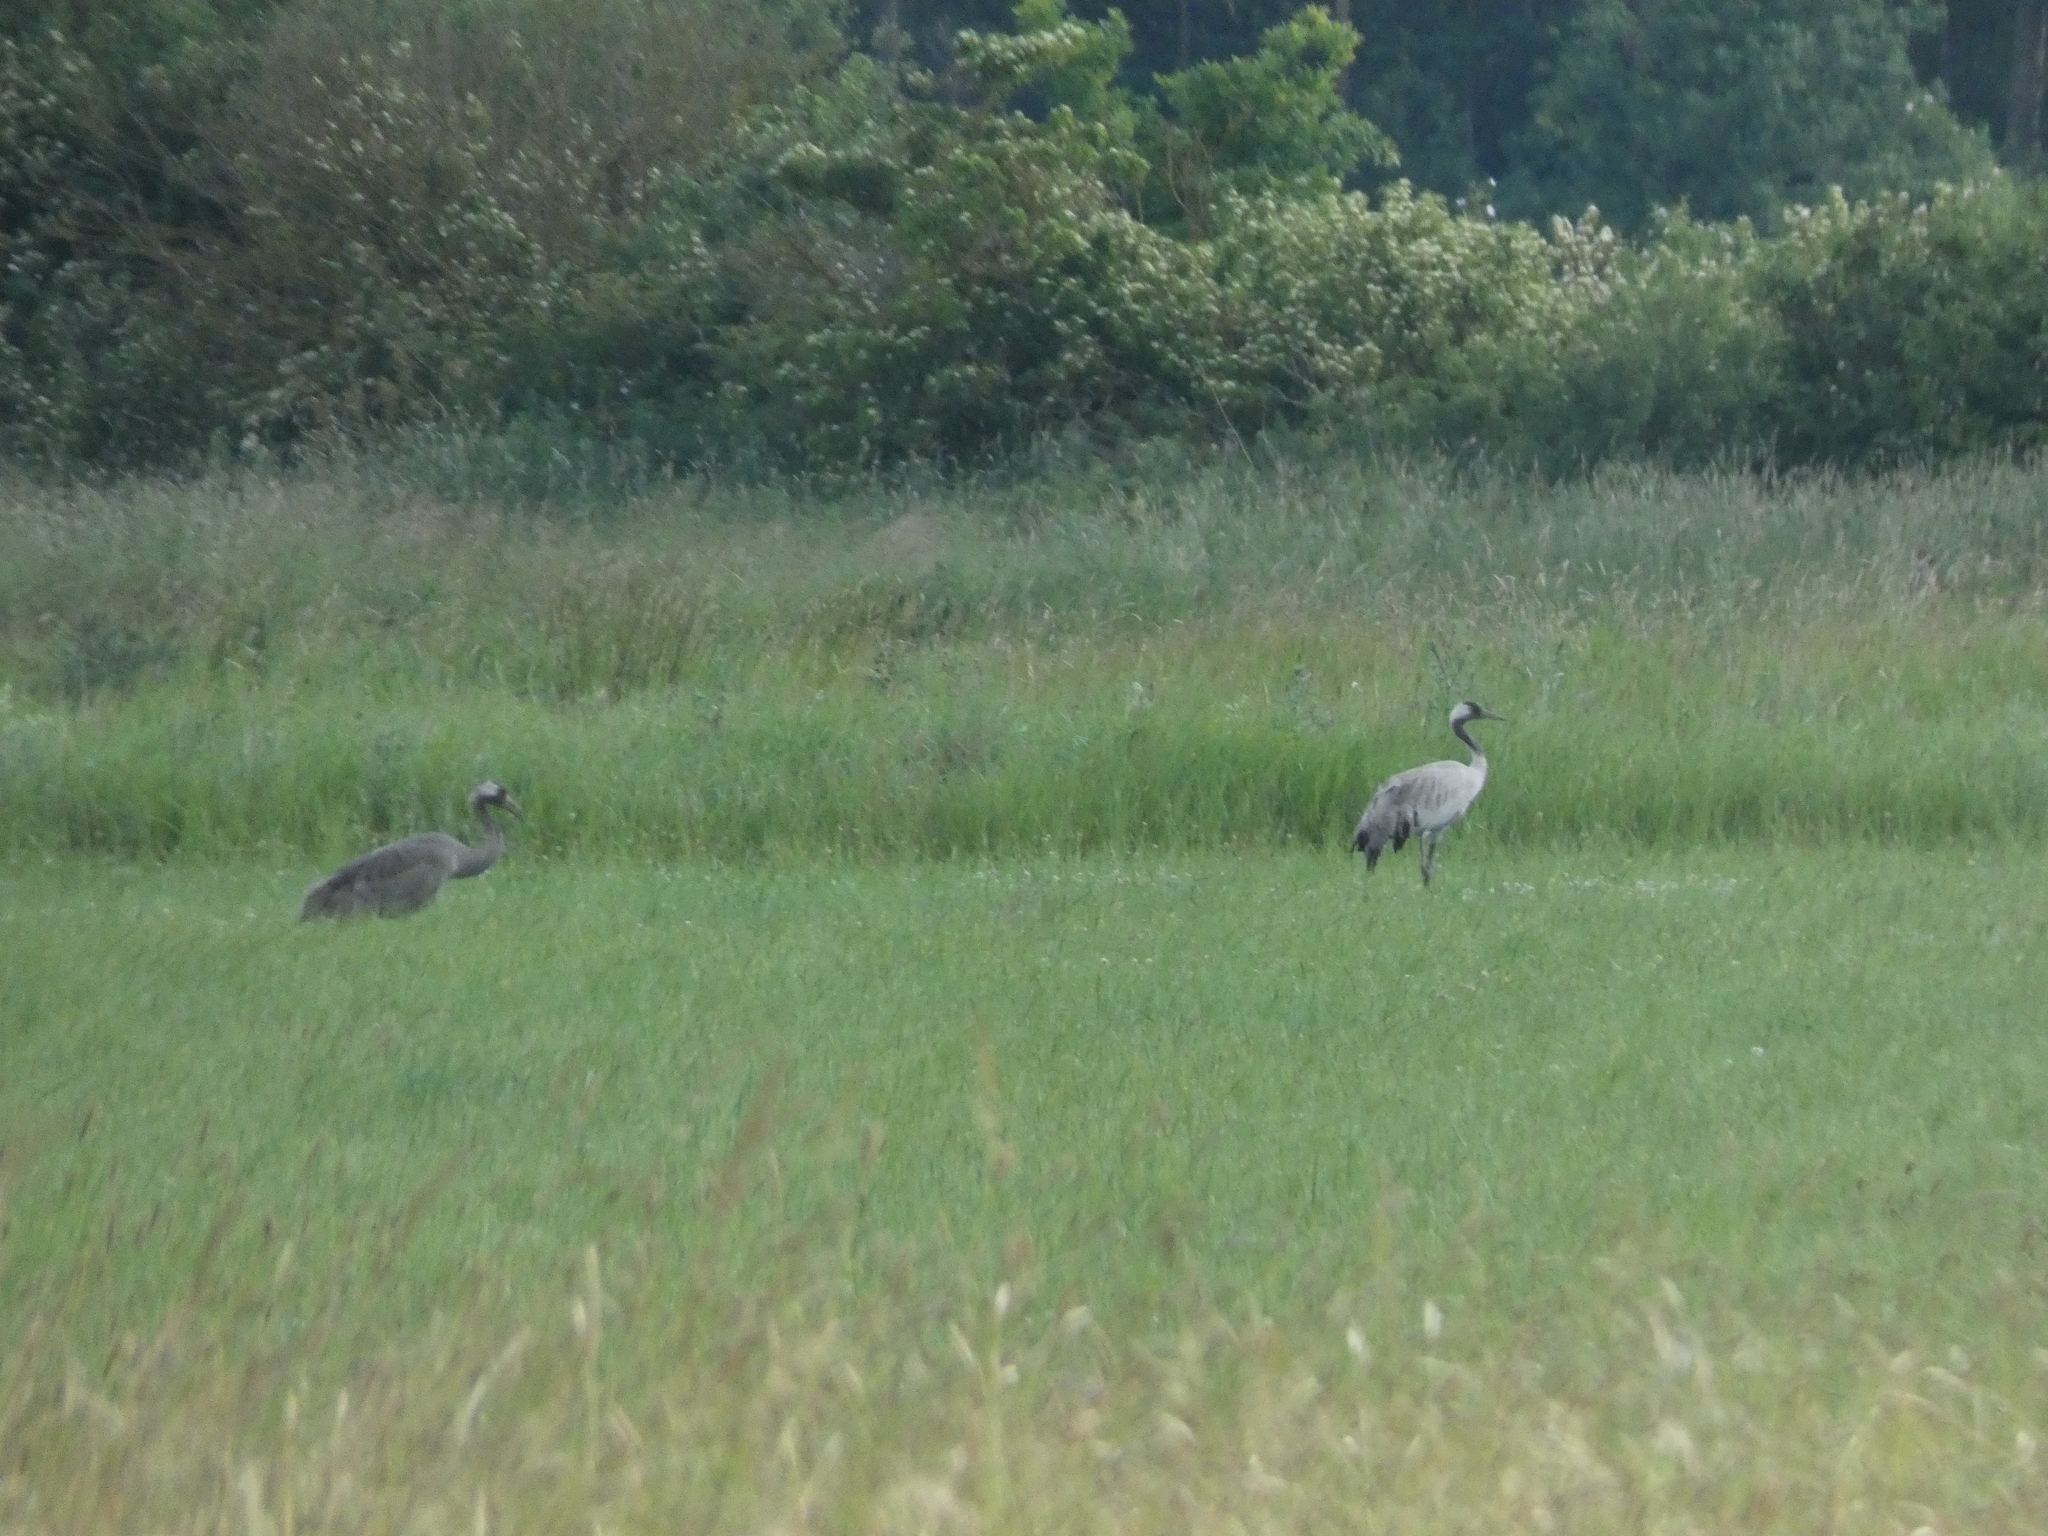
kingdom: Animalia
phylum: Chordata
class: Aves
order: Gruiformes
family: Gruidae
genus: Grus
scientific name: Grus grus
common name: Common crane
